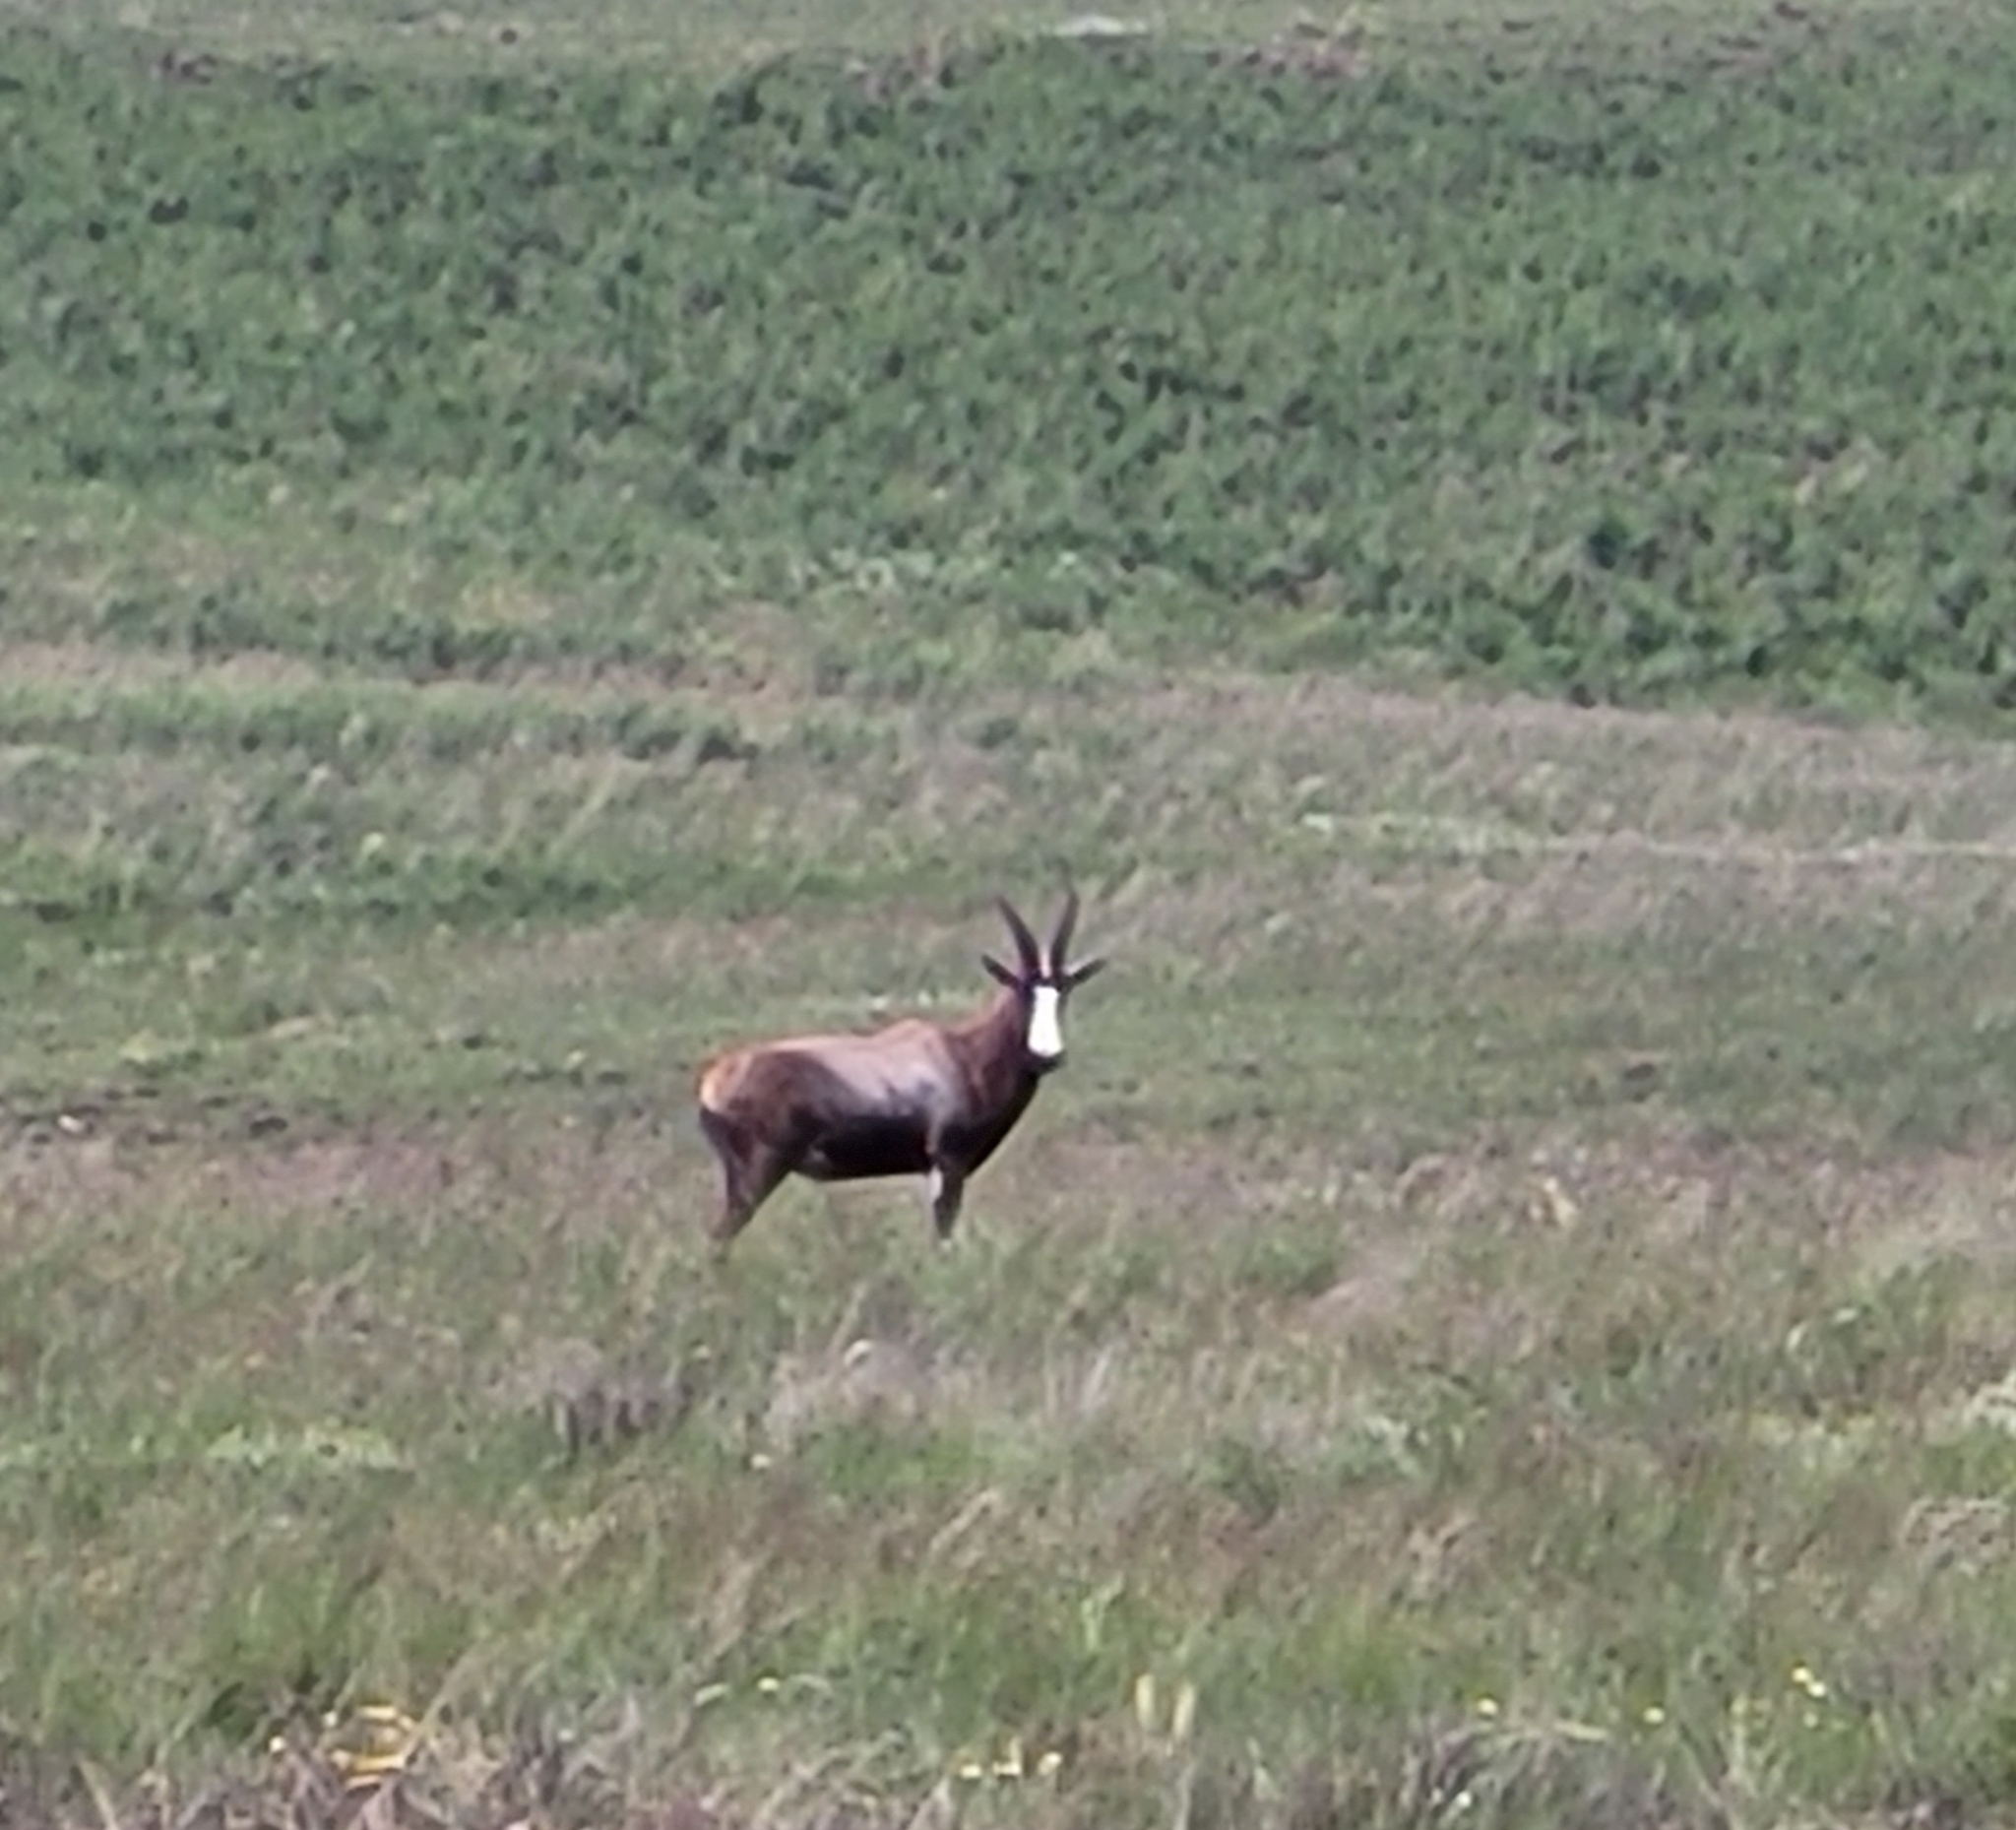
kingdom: Animalia
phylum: Chordata
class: Mammalia
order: Artiodactyla
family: Bovidae
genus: Damaliscus
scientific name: Damaliscus pygargus
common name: Bontebok
